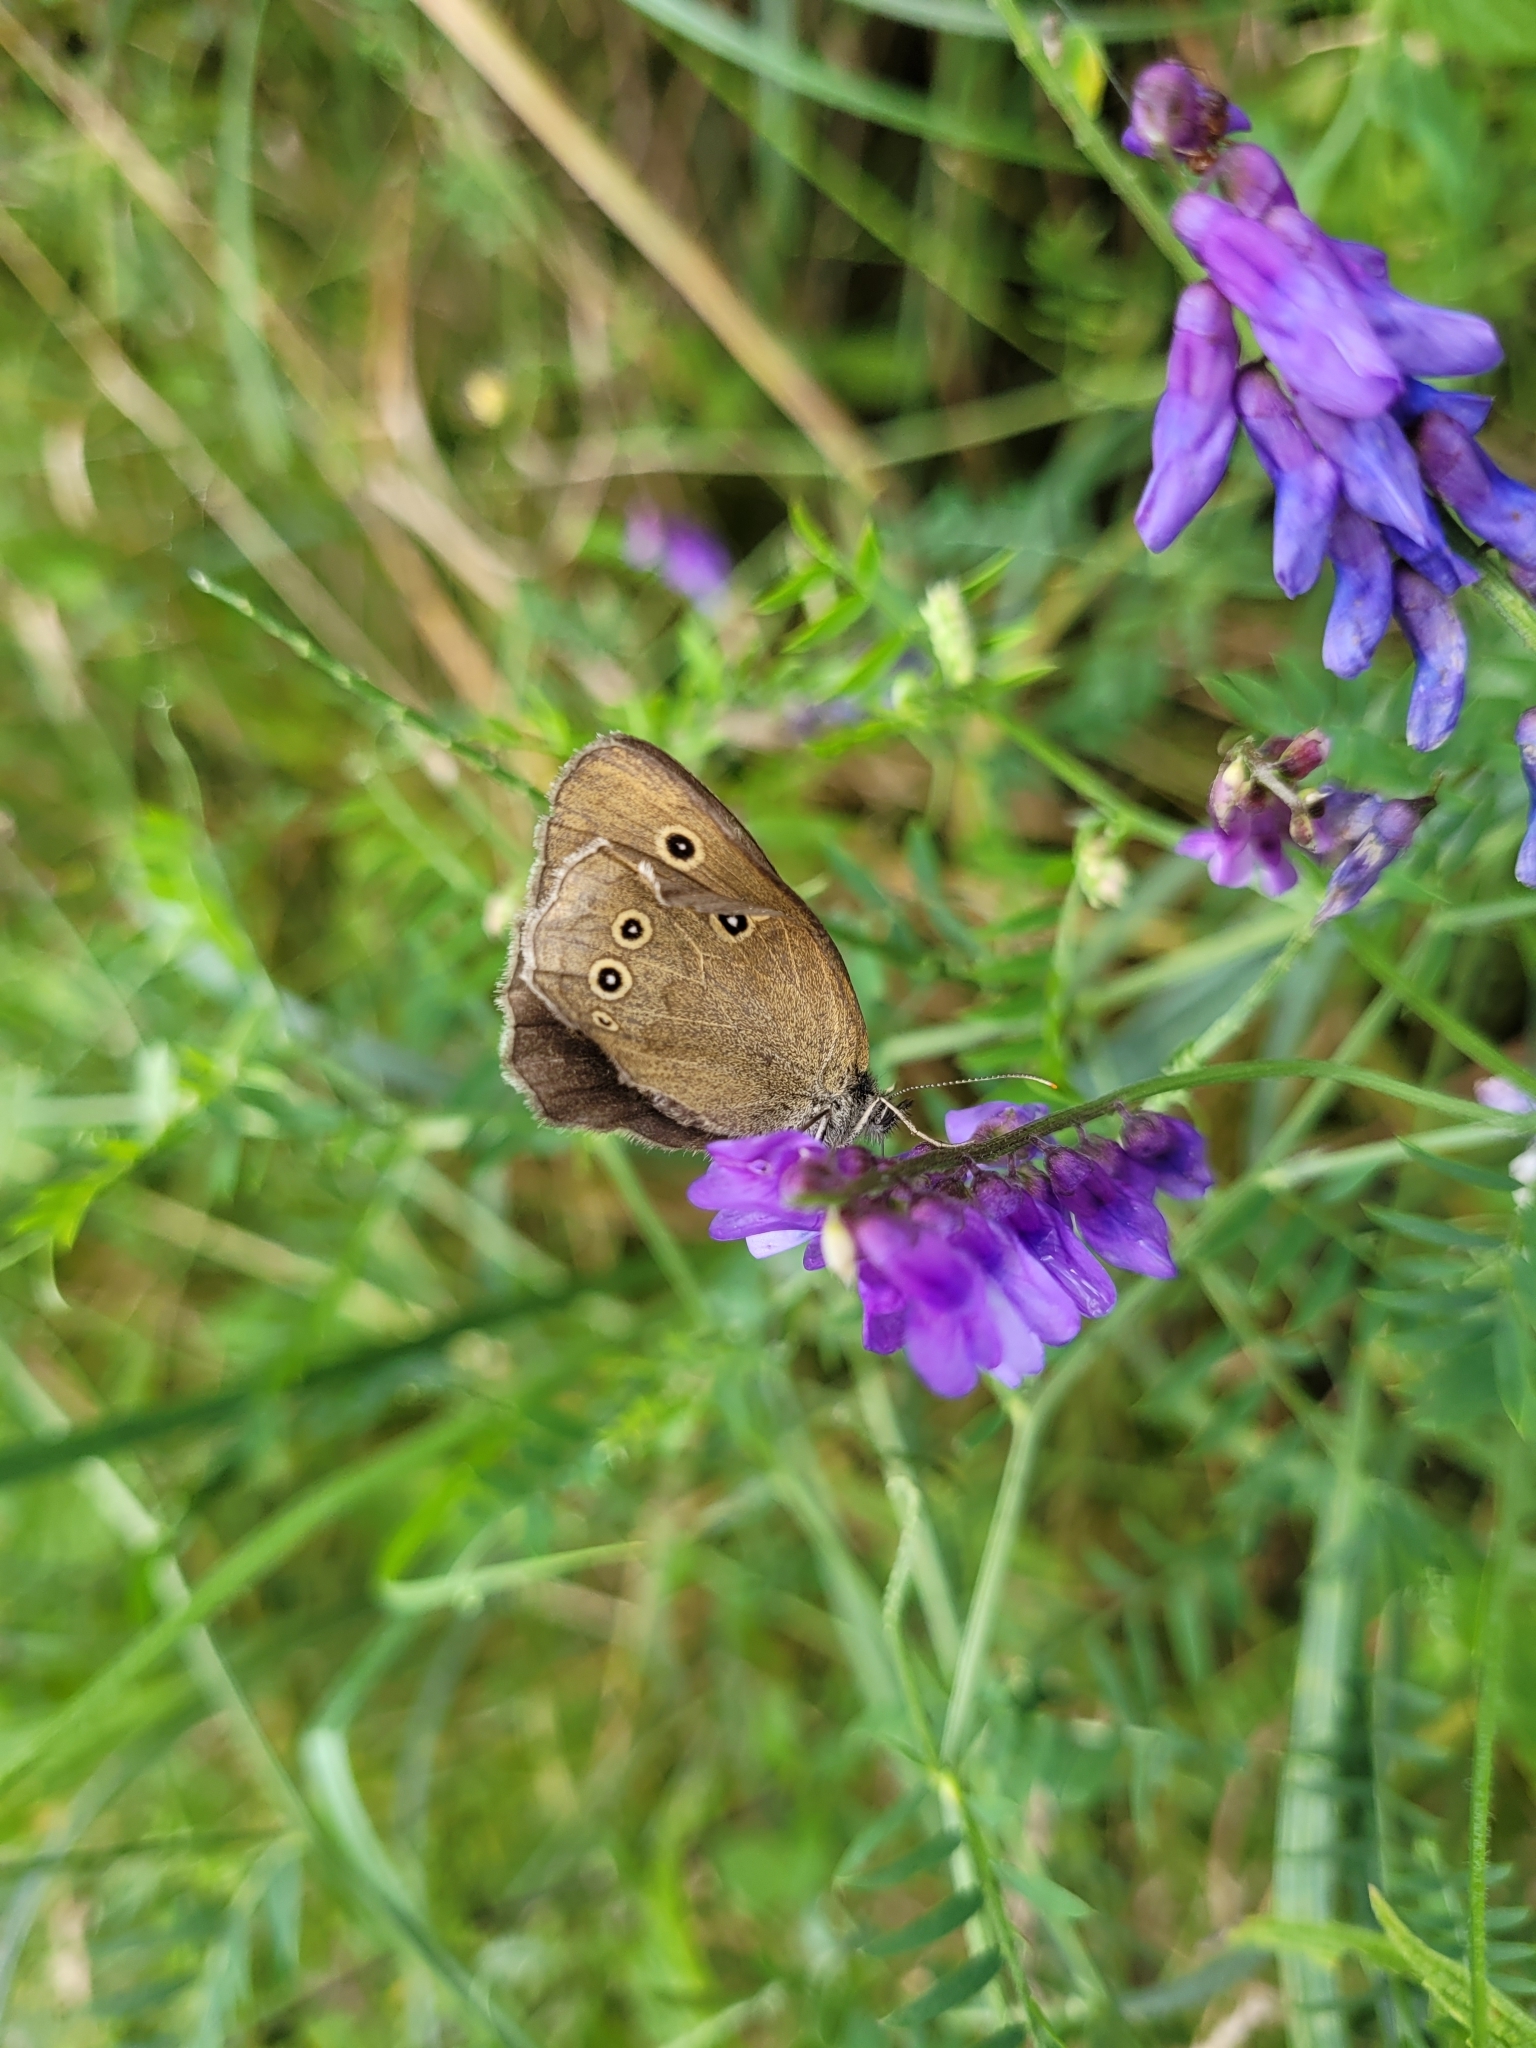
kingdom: Animalia
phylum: Arthropoda
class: Insecta
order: Lepidoptera
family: Nymphalidae
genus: Aphantopus
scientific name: Aphantopus hyperantus
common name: Ringlet
